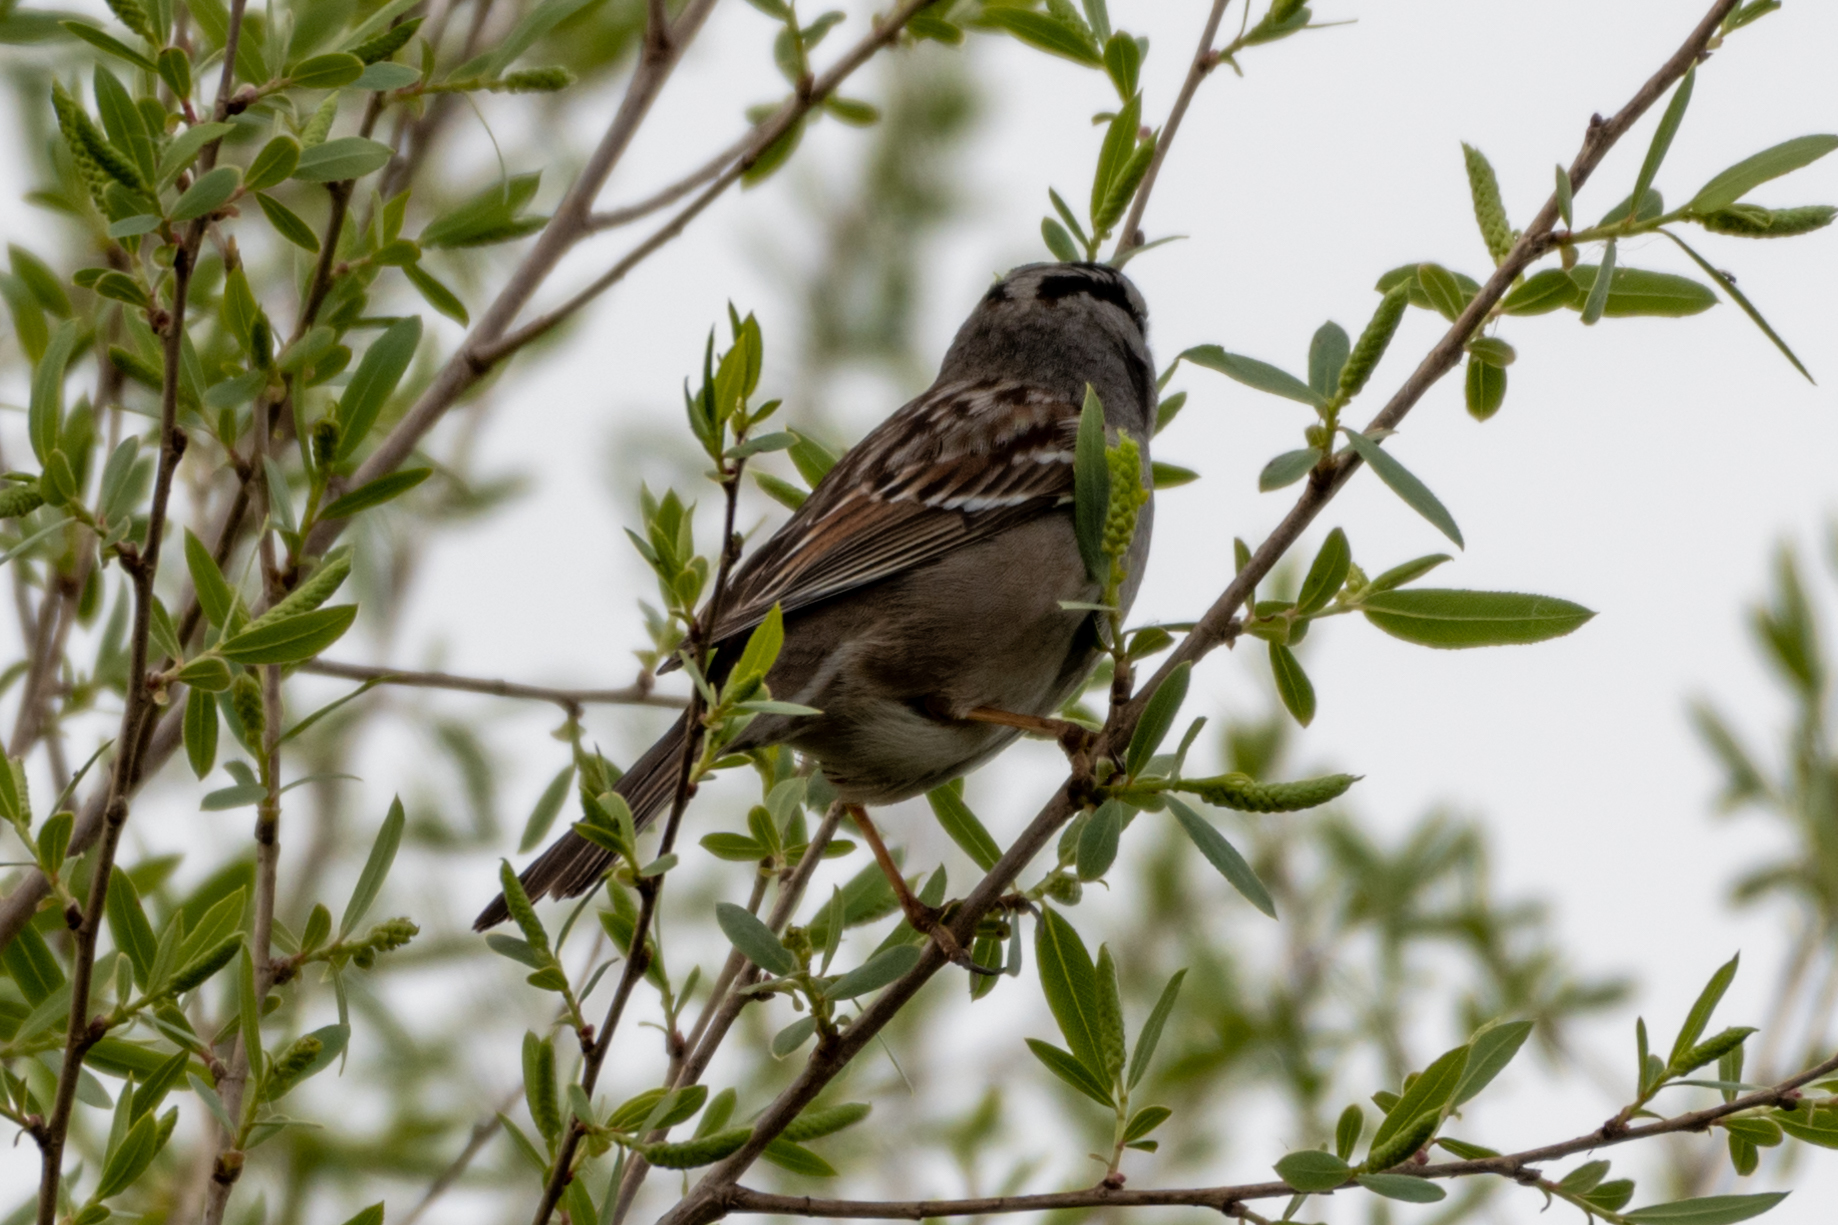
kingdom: Animalia
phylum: Chordata
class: Aves
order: Passeriformes
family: Passerellidae
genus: Zonotrichia
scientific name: Zonotrichia leucophrys
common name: White-crowned sparrow
